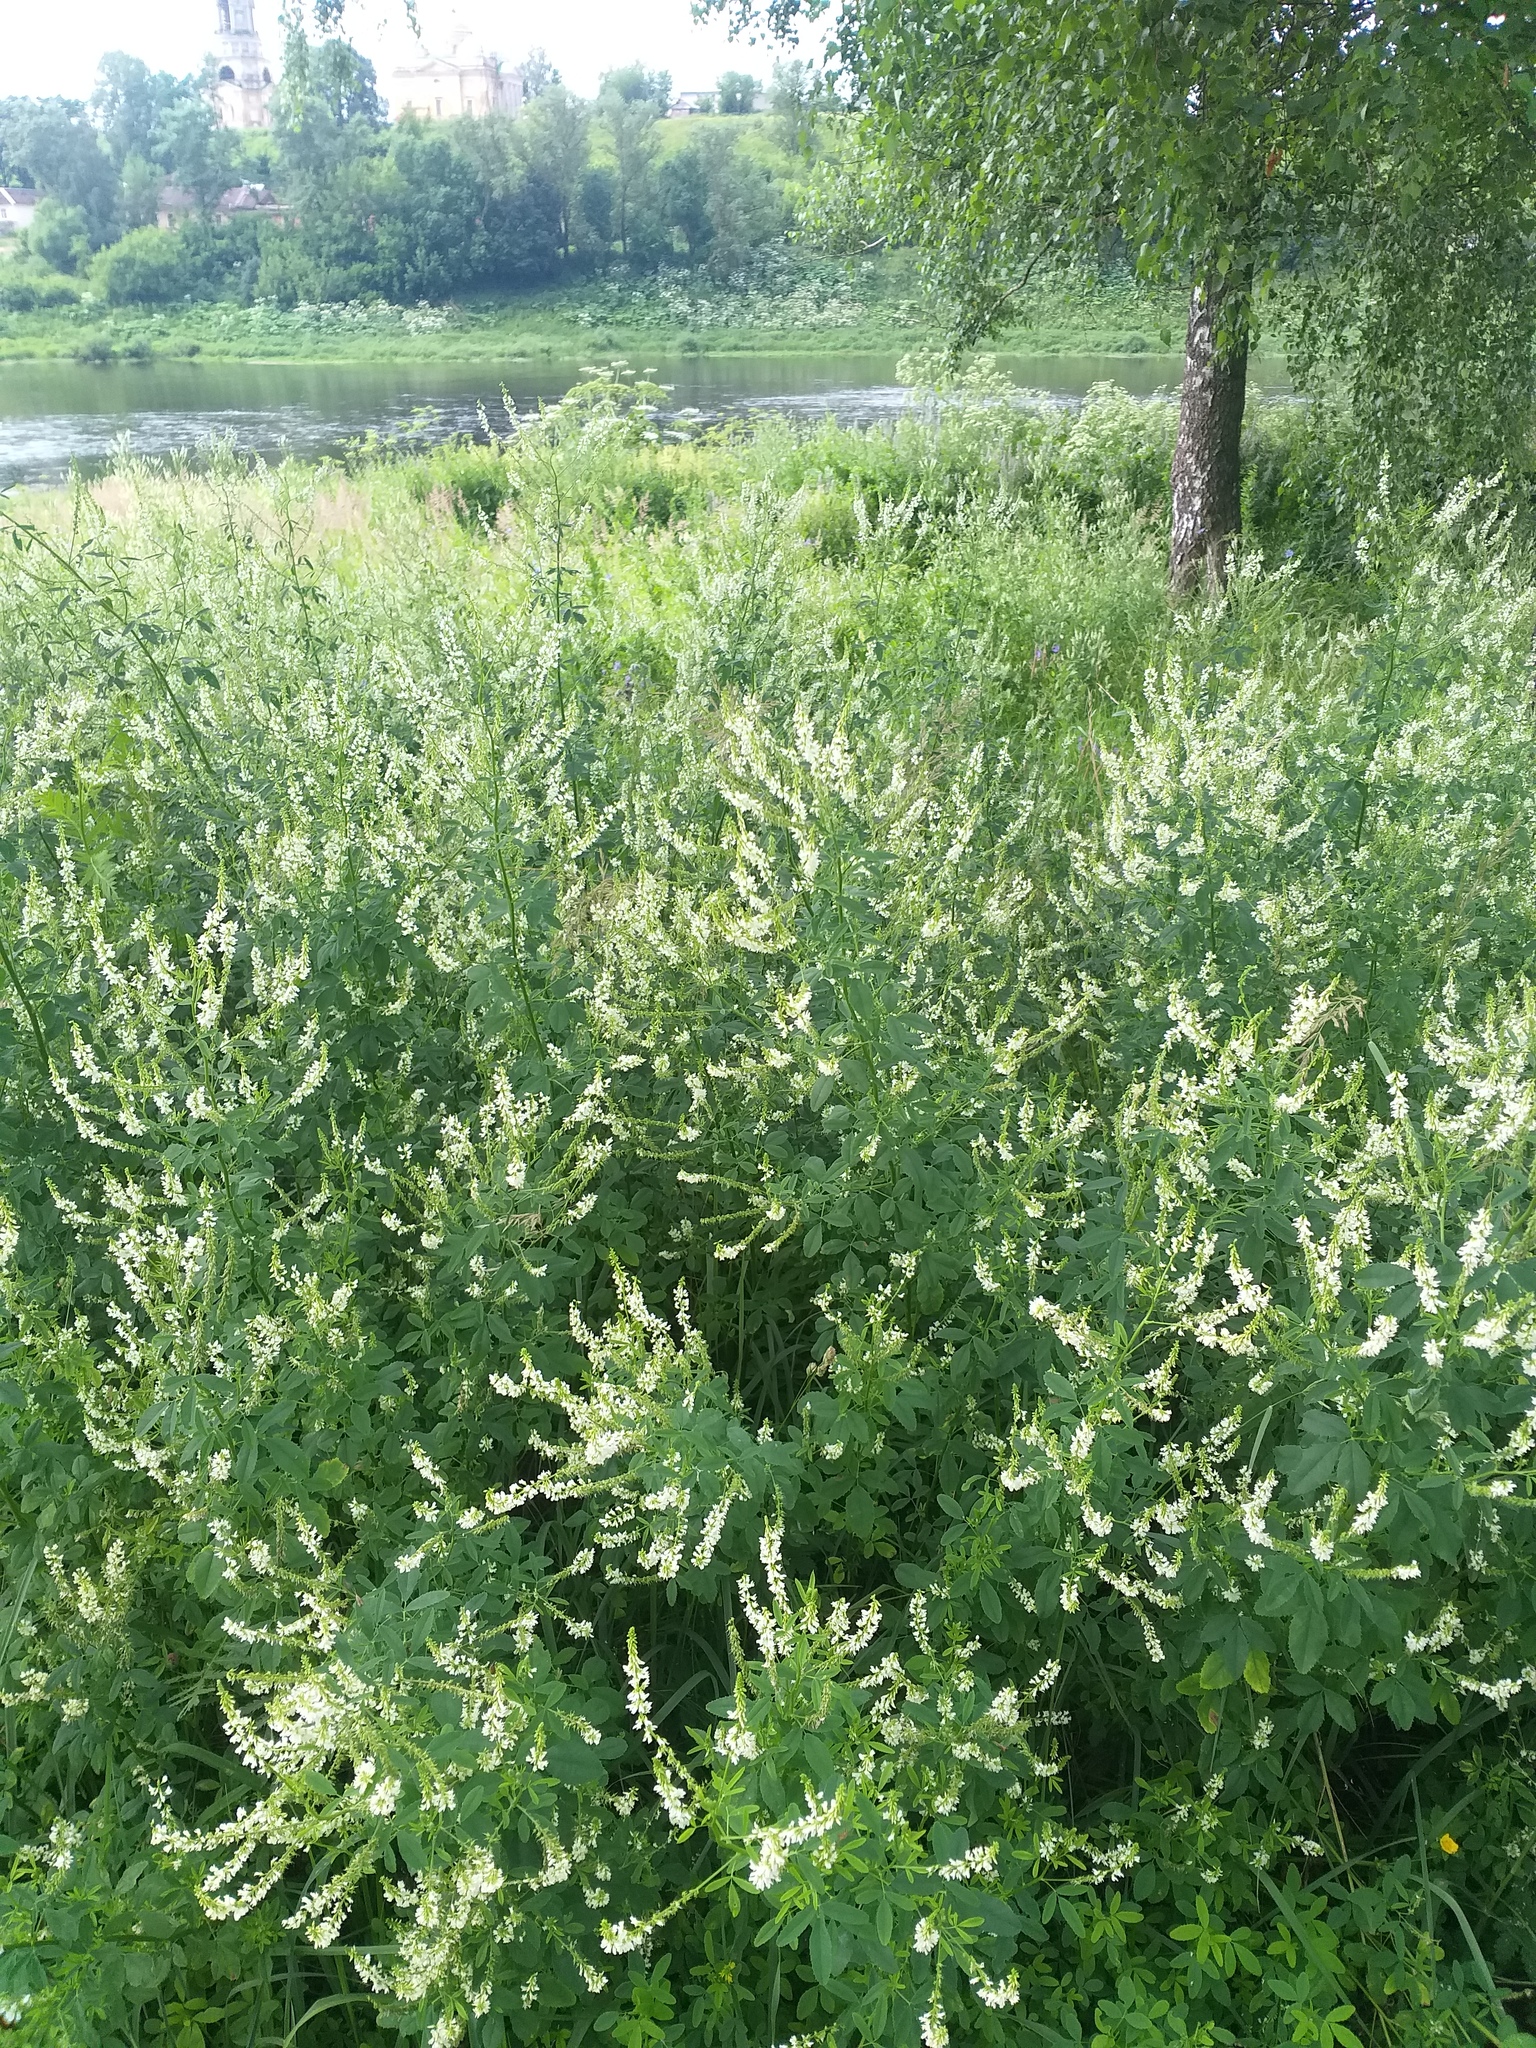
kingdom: Plantae
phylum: Tracheophyta
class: Magnoliopsida
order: Fabales
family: Fabaceae
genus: Melilotus
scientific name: Melilotus albus
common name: White melilot
